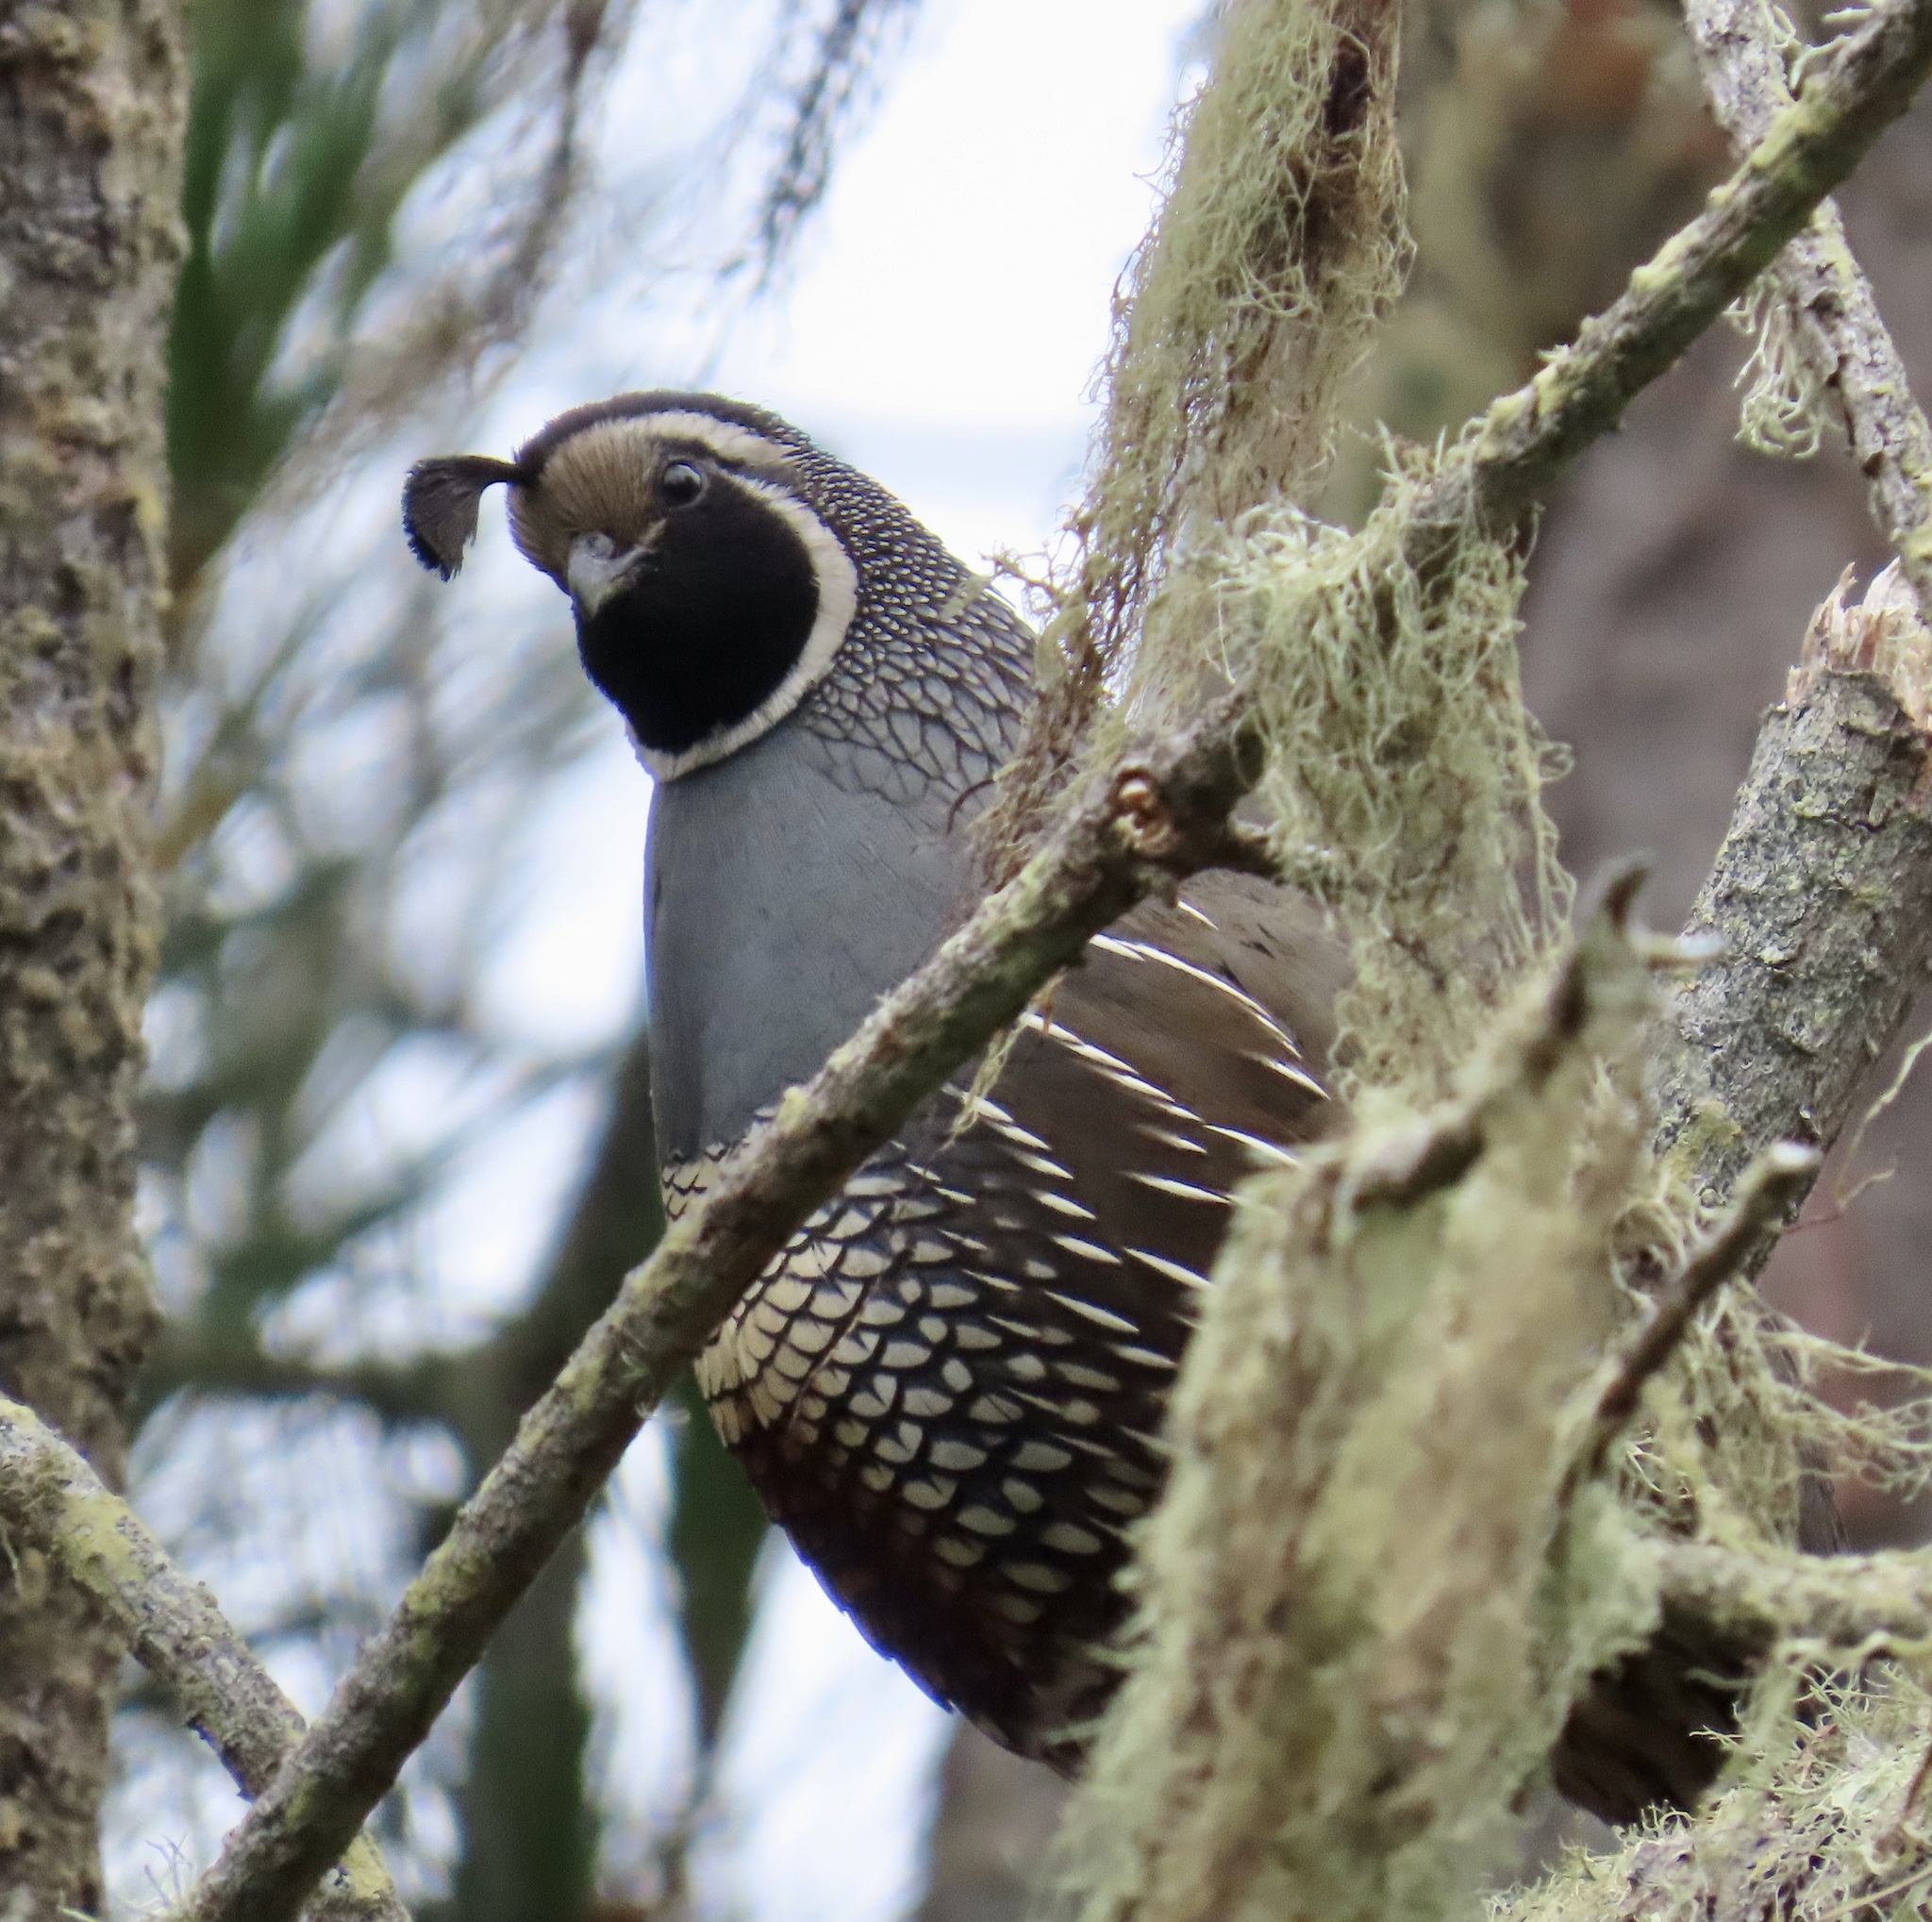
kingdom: Animalia
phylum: Chordata
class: Aves
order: Galliformes
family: Odontophoridae
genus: Callipepla
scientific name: Callipepla californica
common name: California quail
